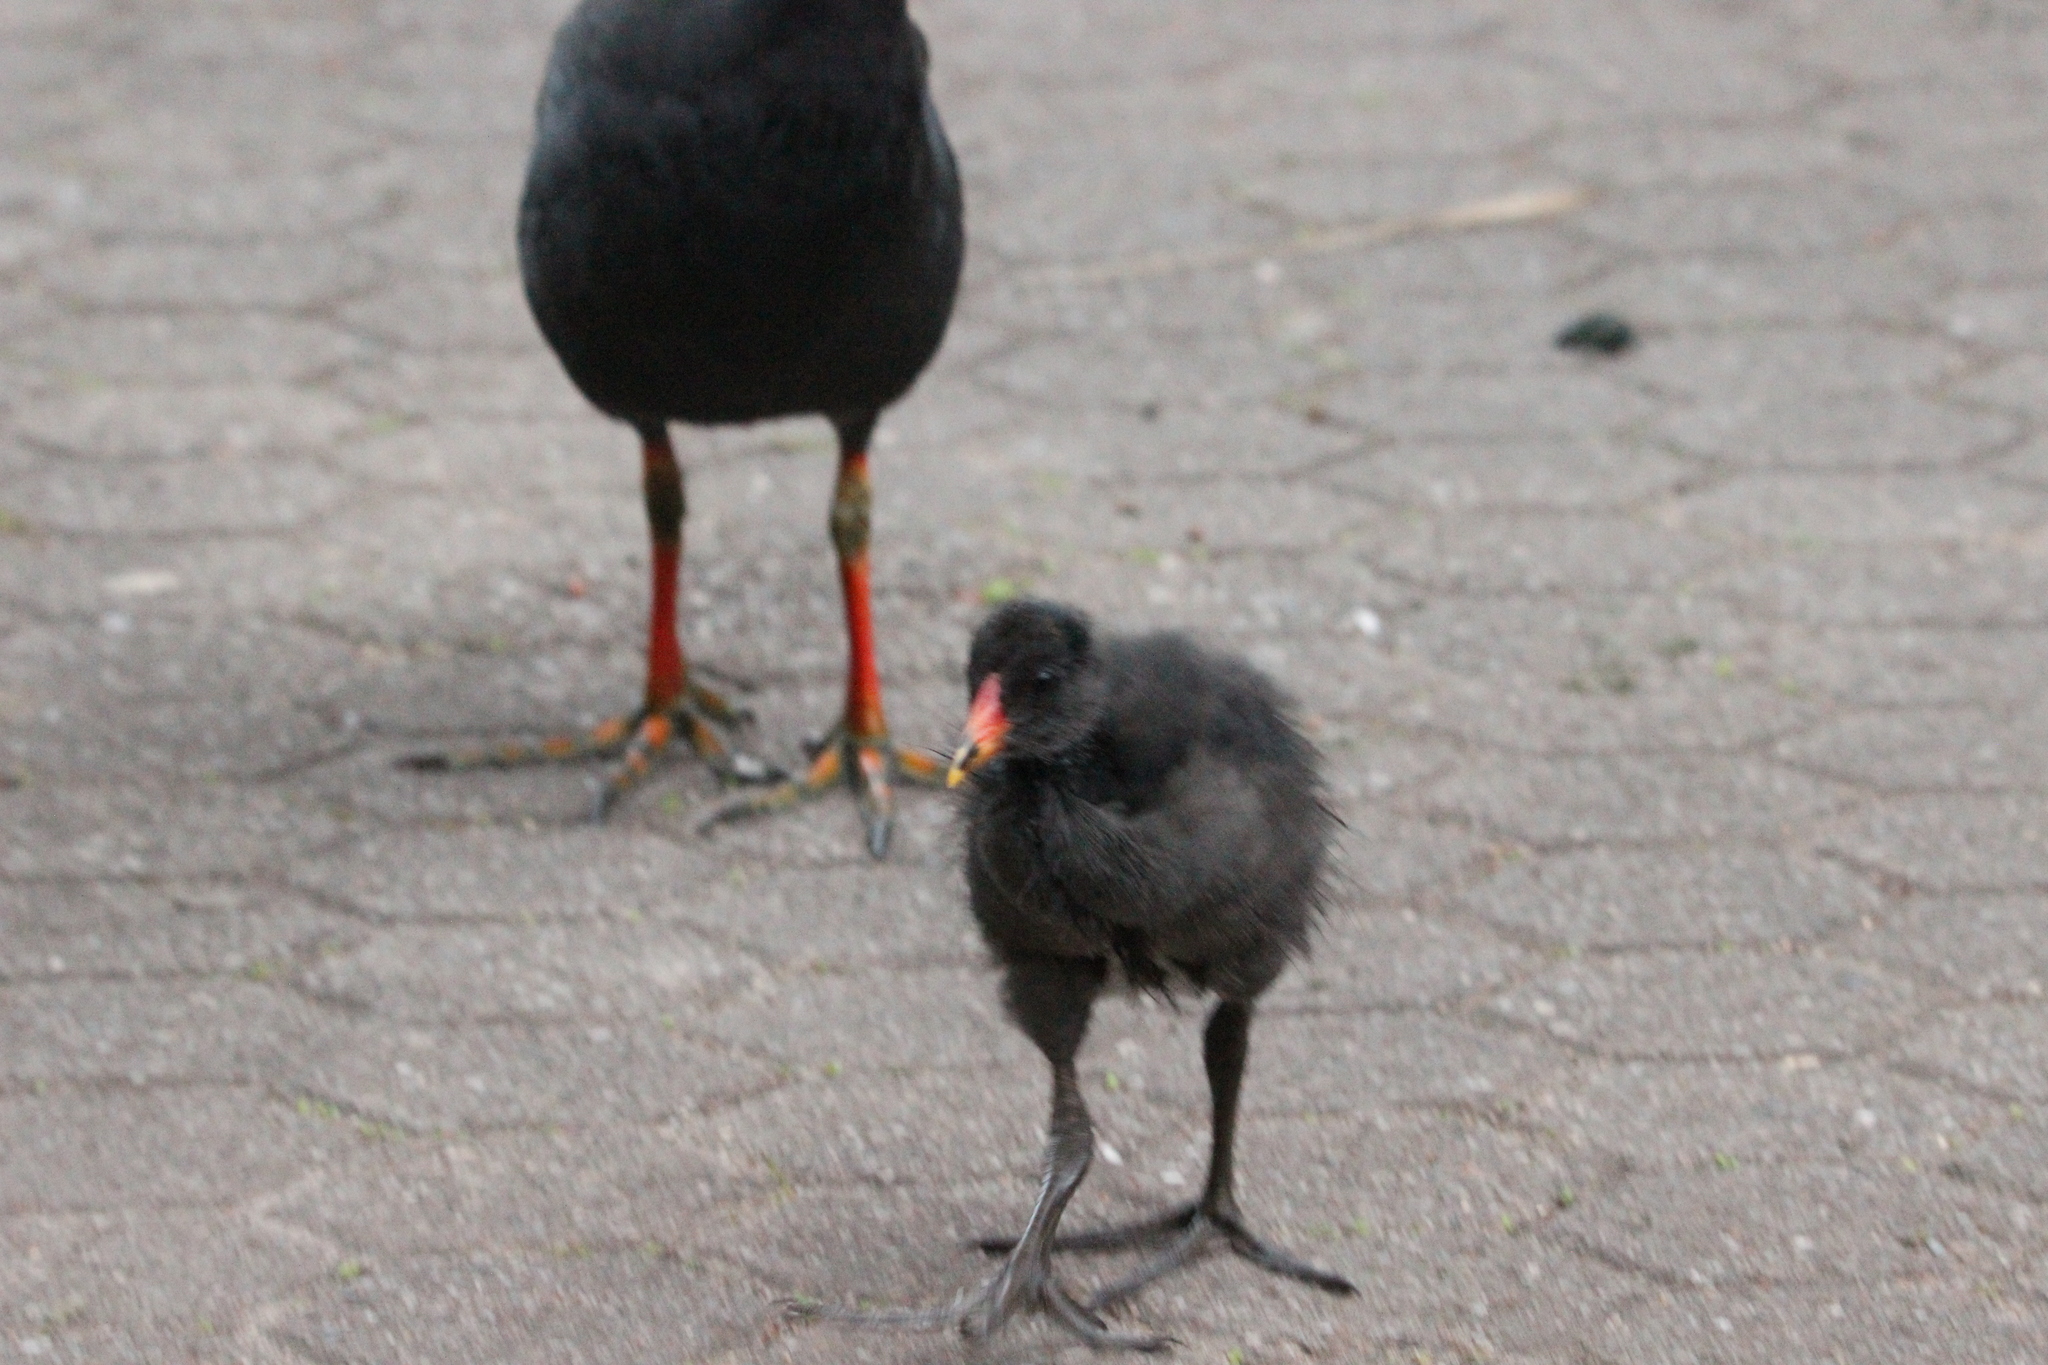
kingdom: Animalia
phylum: Chordata
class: Aves
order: Gruiformes
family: Rallidae
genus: Gallinula
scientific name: Gallinula tenebrosa
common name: Dusky moorhen
